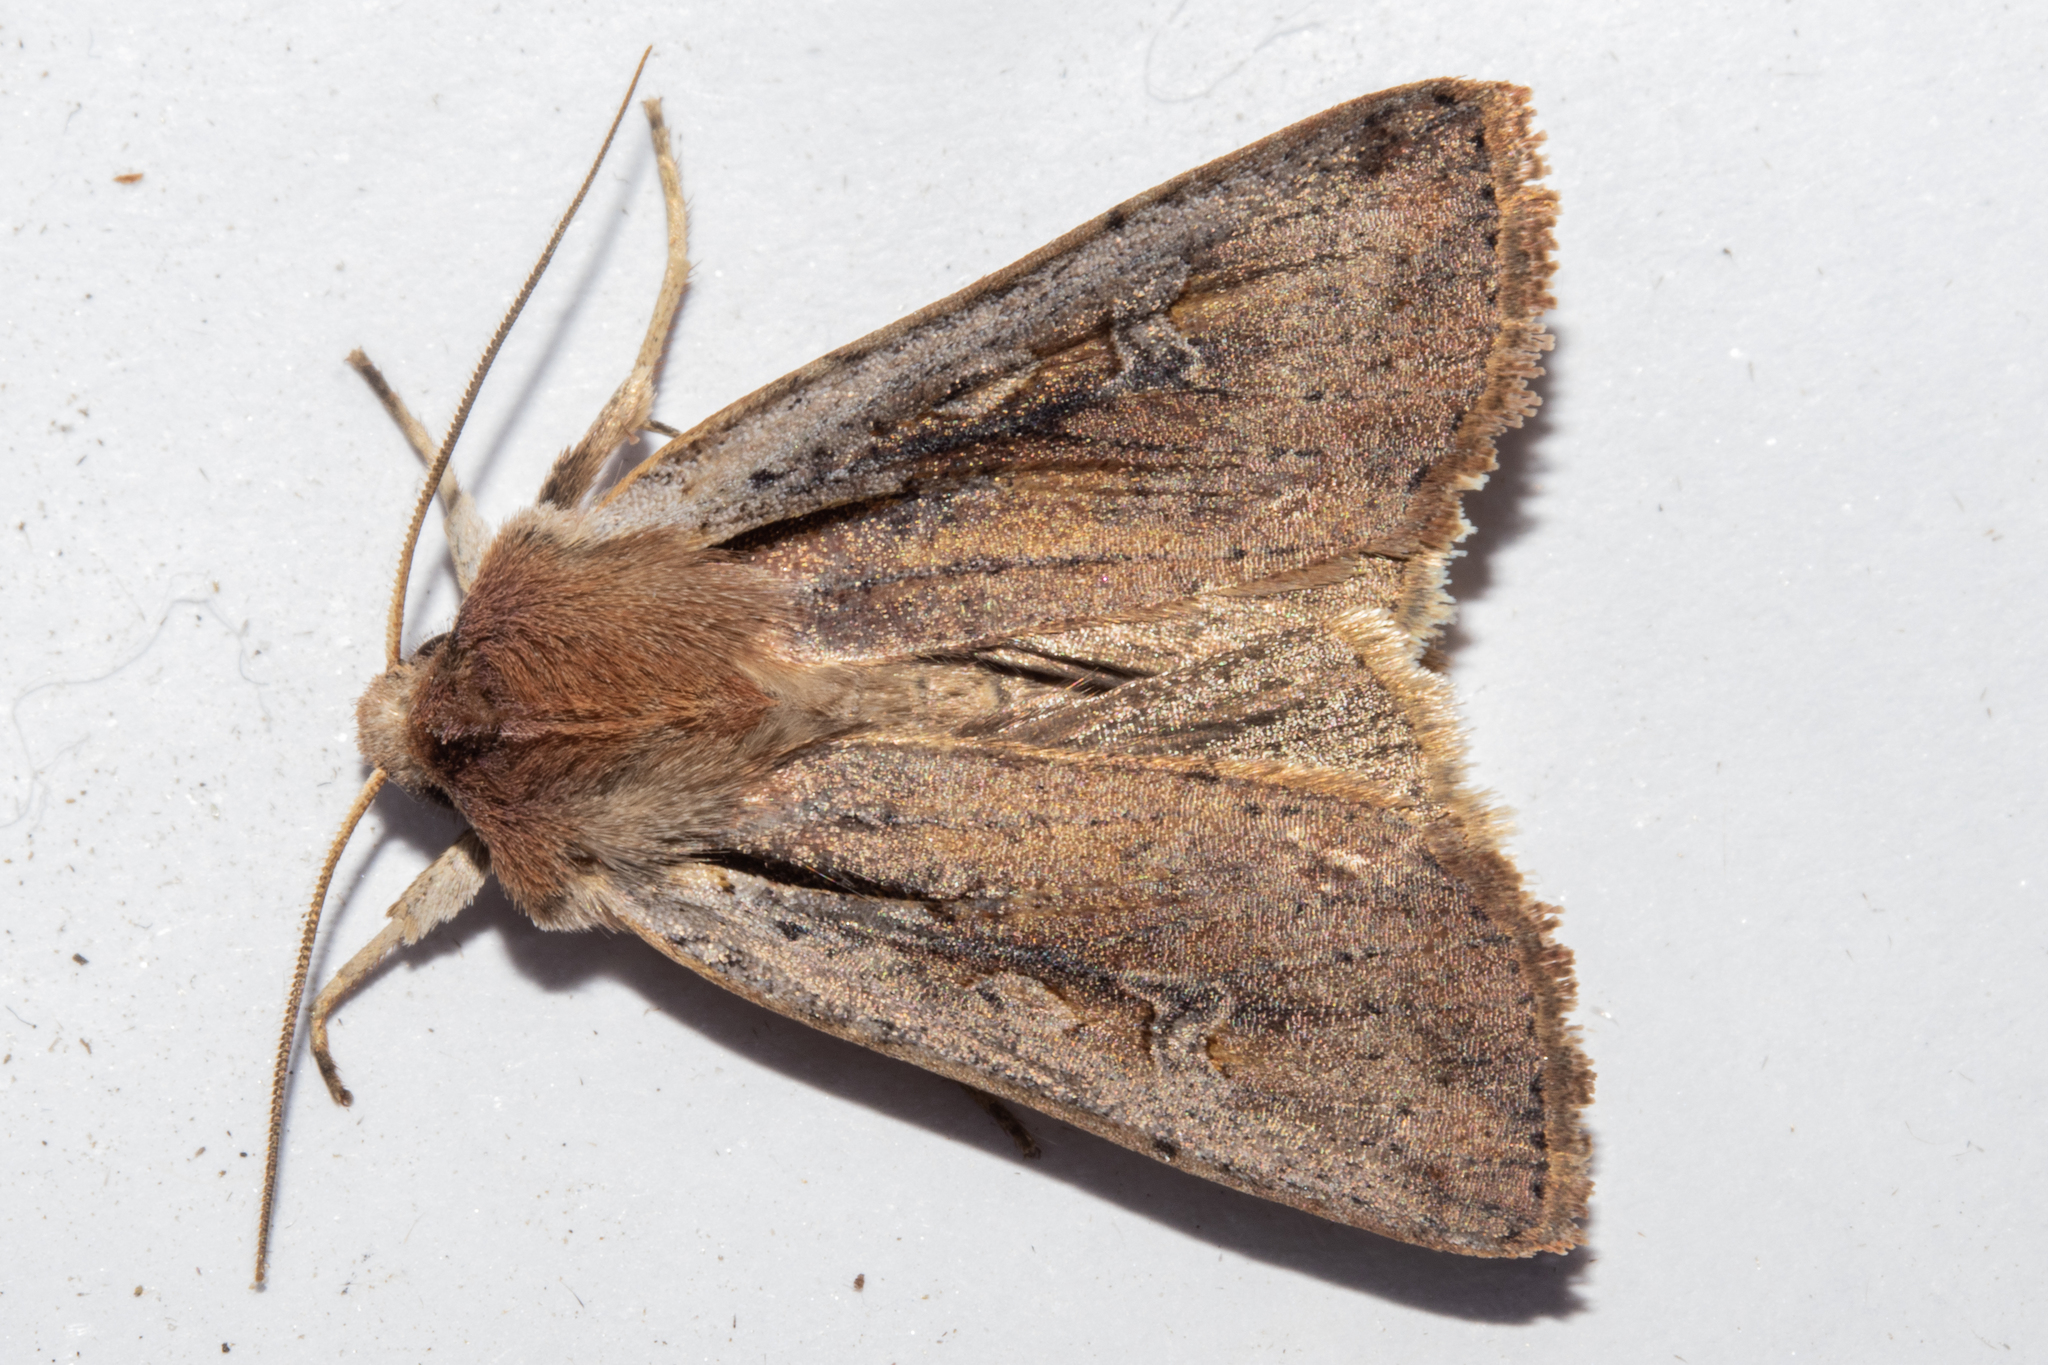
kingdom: Animalia
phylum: Arthropoda
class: Insecta
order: Lepidoptera
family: Noctuidae
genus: Ichneutica
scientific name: Ichneutica atristriga
